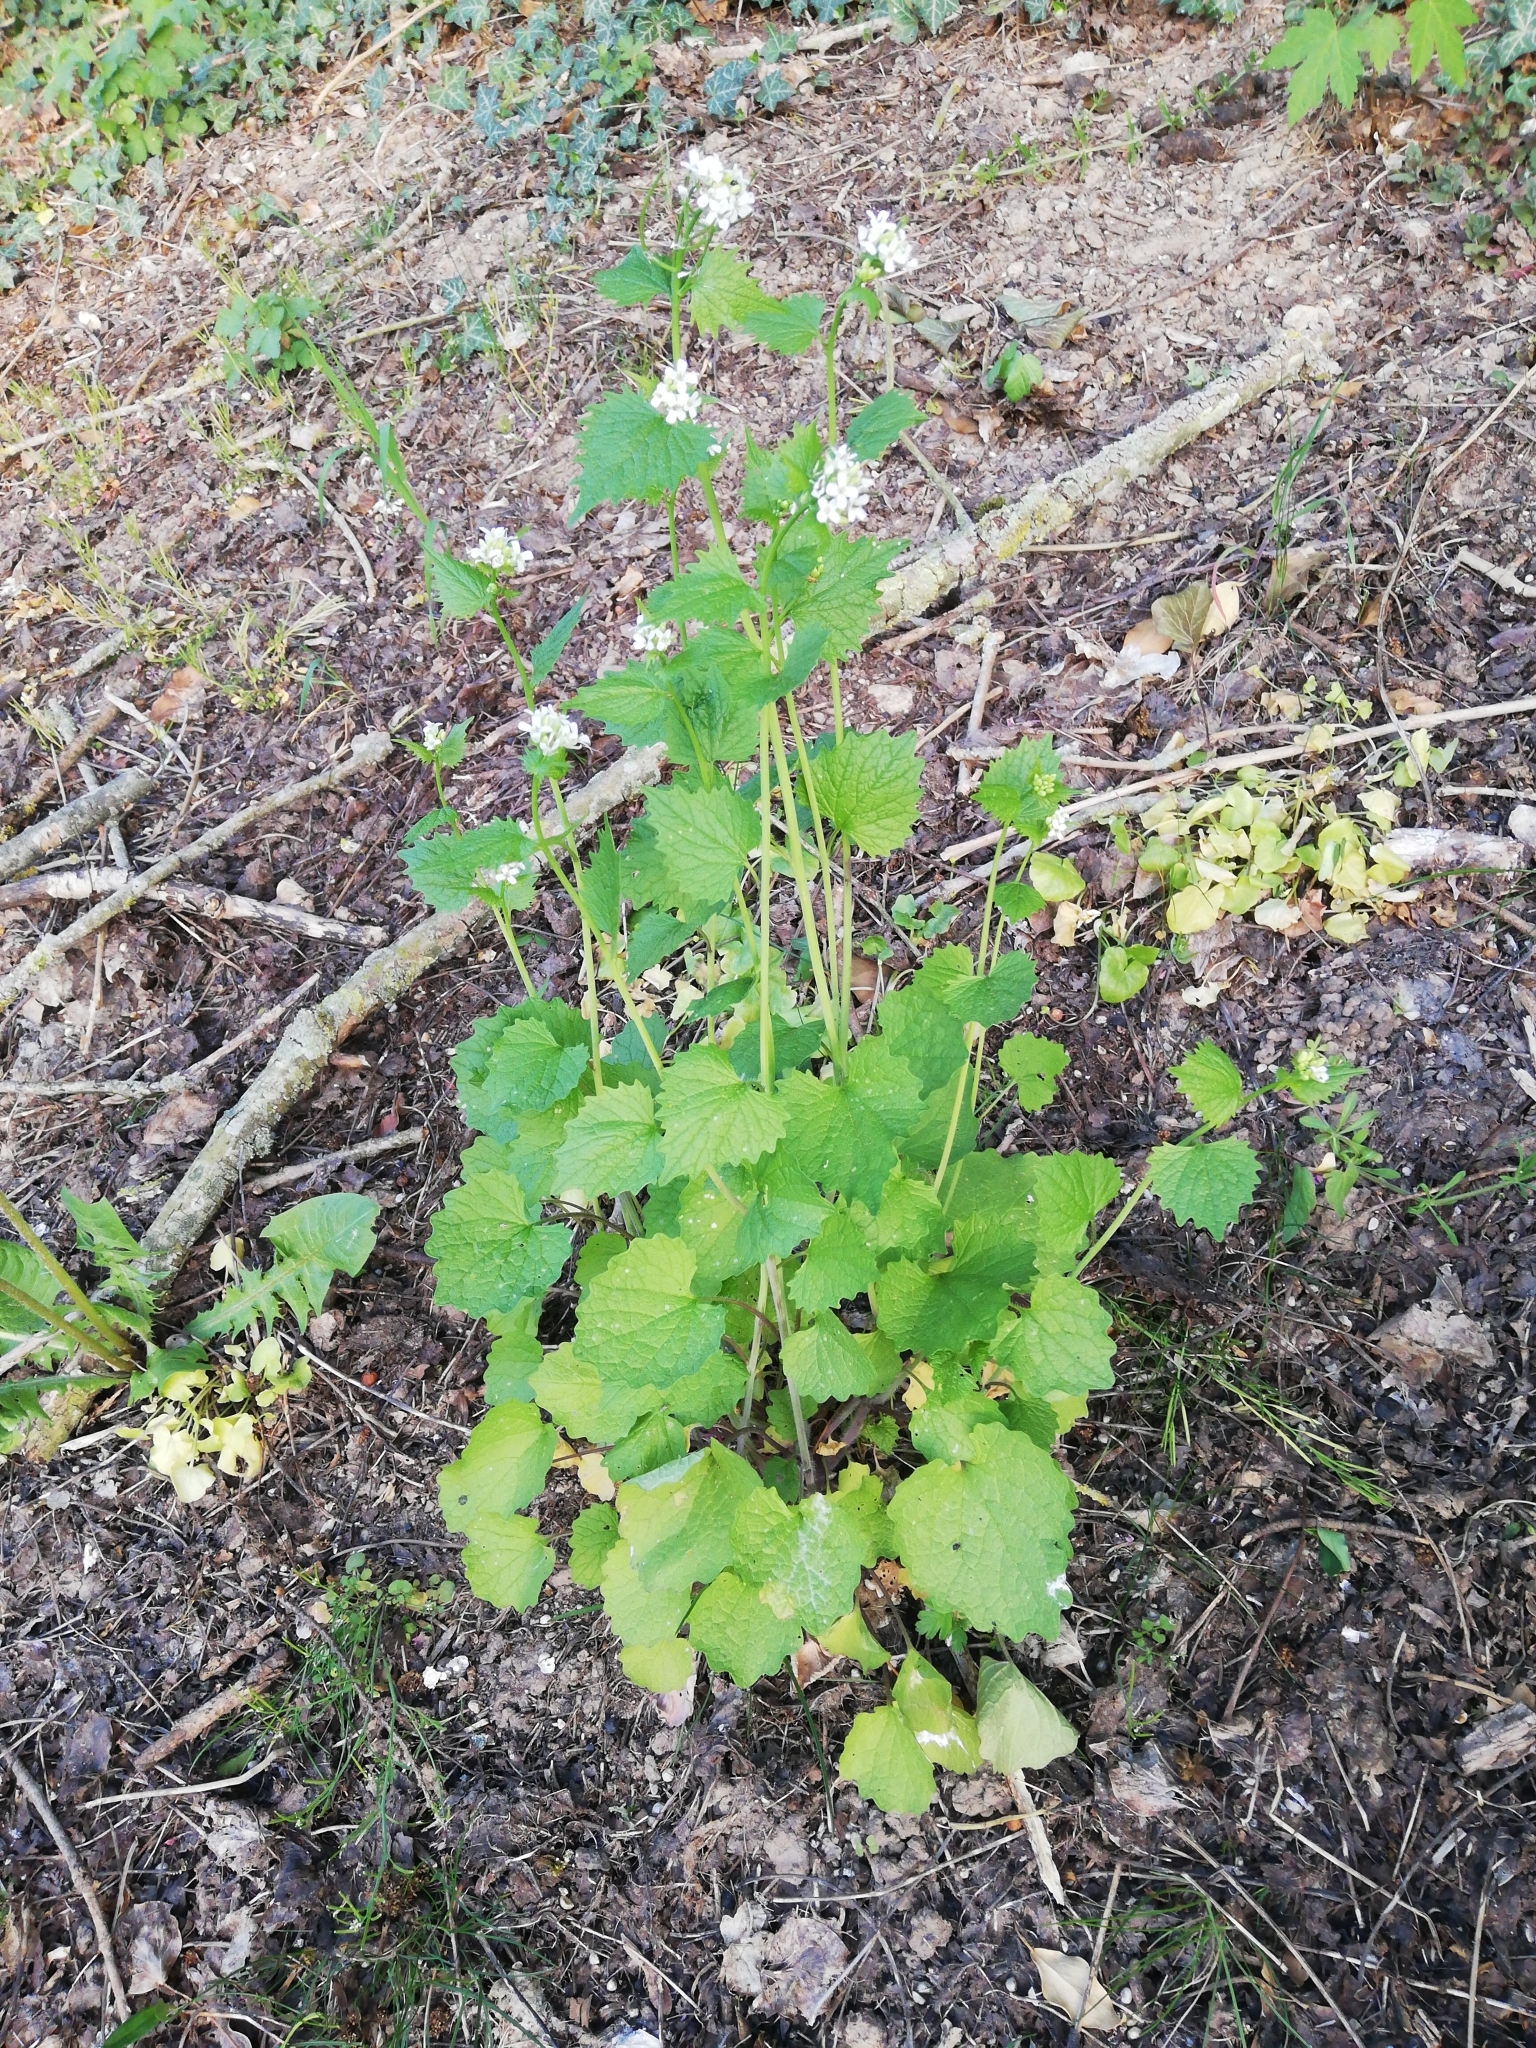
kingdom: Plantae
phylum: Tracheophyta
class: Magnoliopsida
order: Brassicales
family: Brassicaceae
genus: Alliaria
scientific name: Alliaria petiolata
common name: Garlic mustard
